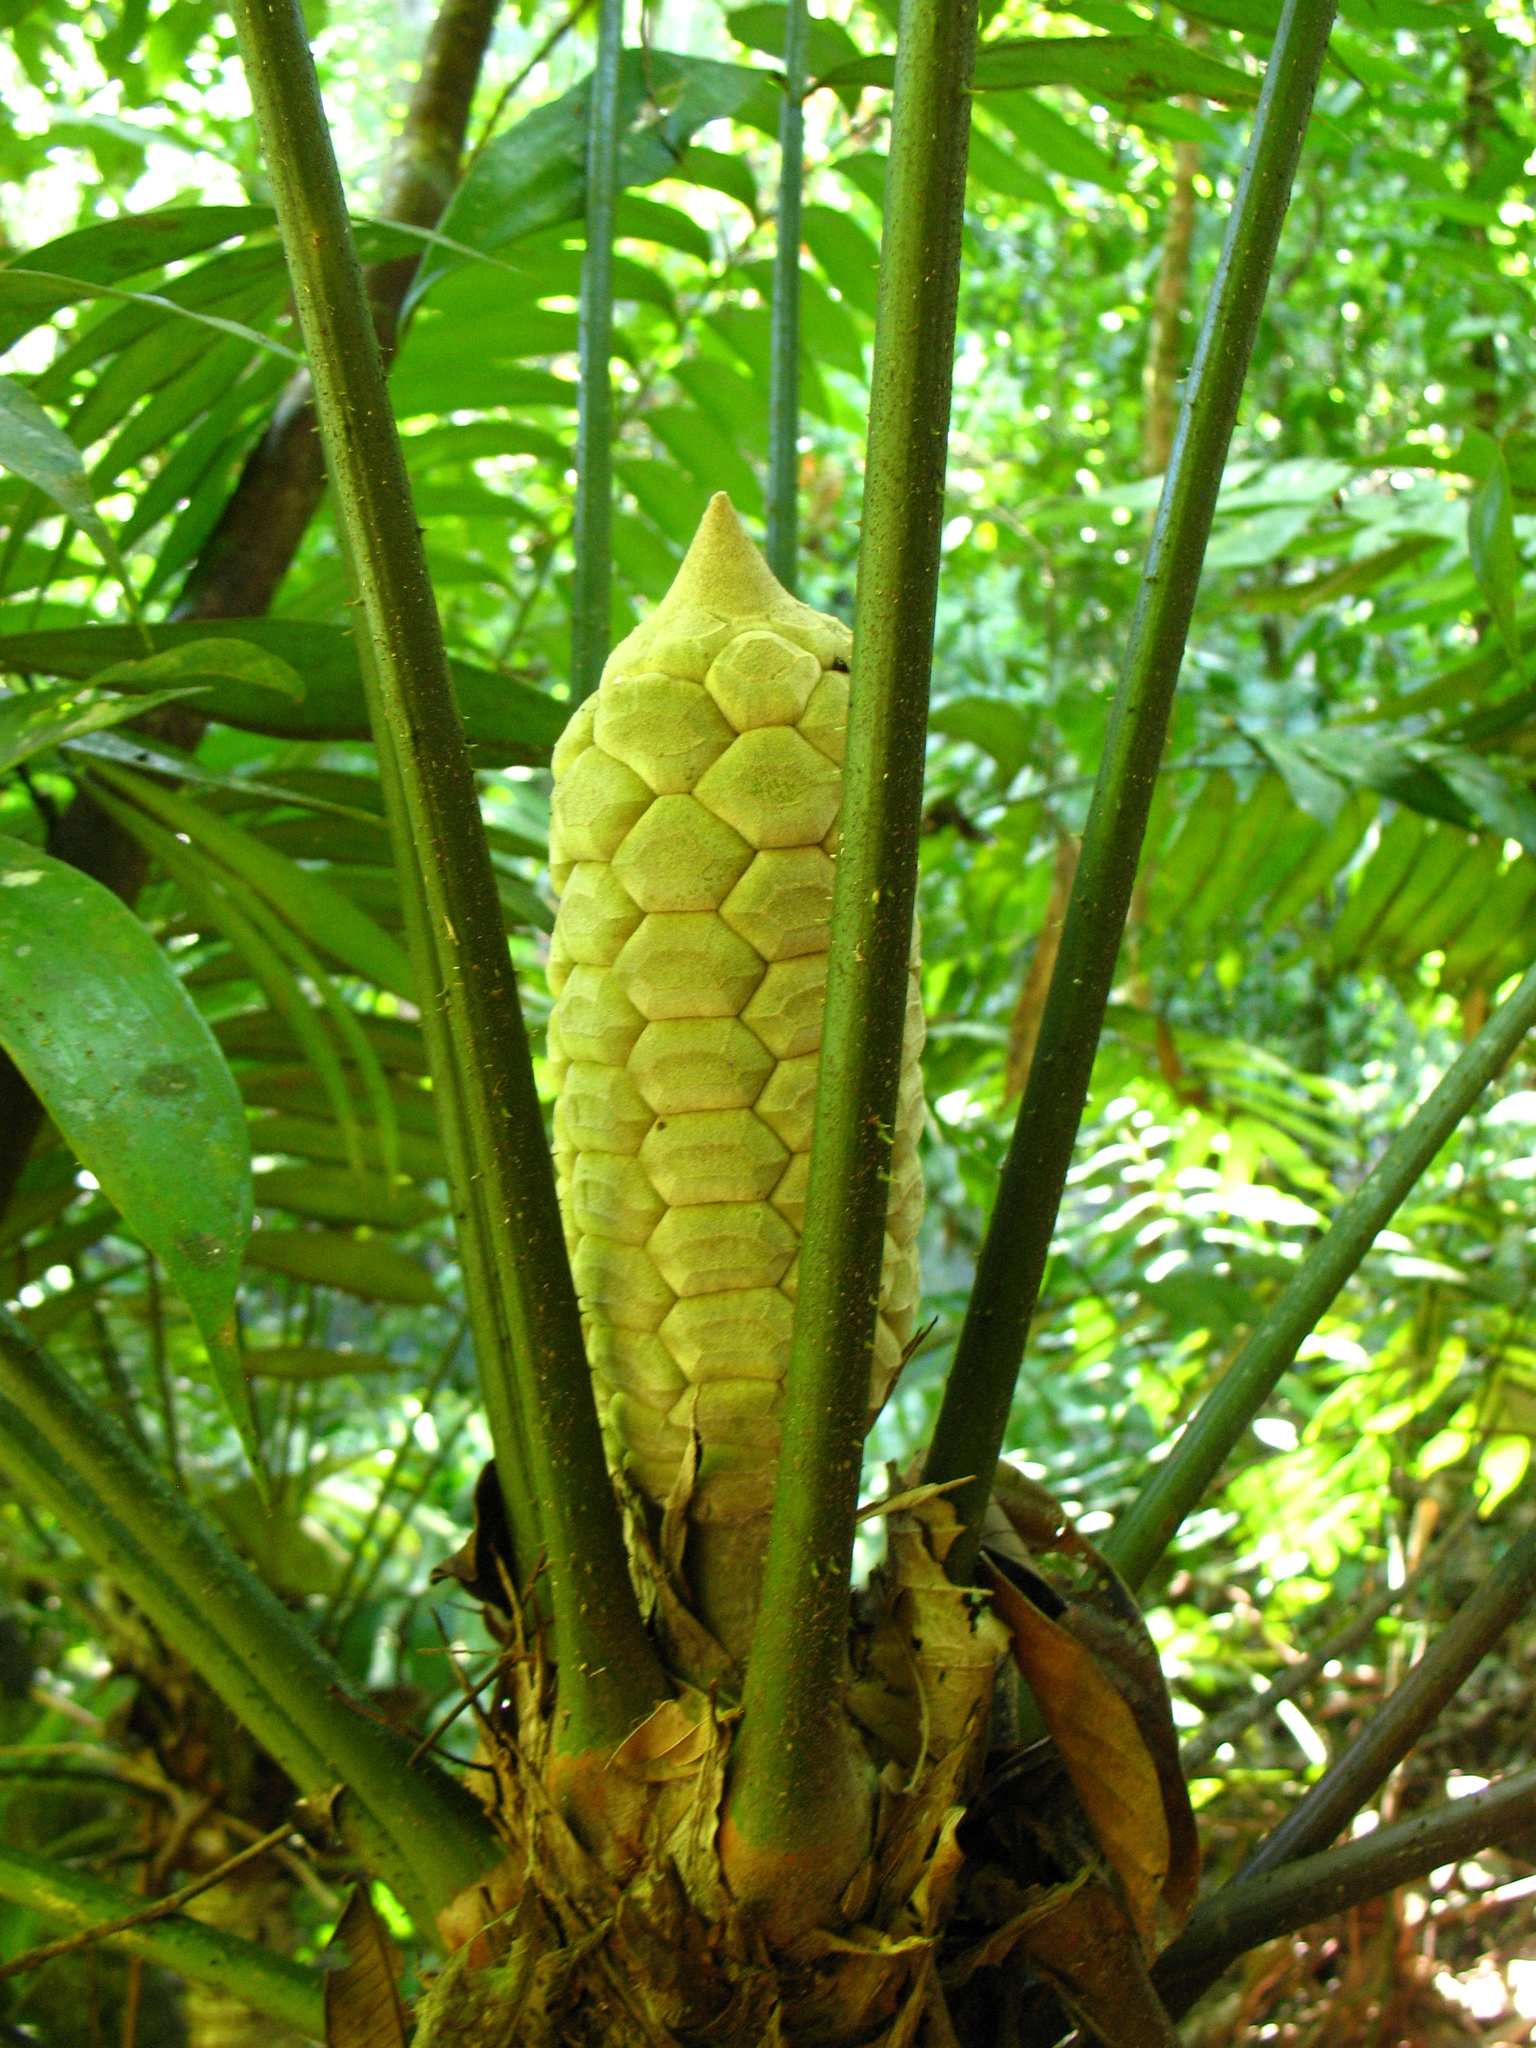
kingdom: Plantae
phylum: Tracheophyta
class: Cycadopsida
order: Cycadales
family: Zamiaceae
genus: Zamia
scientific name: Zamia fairchildiana
